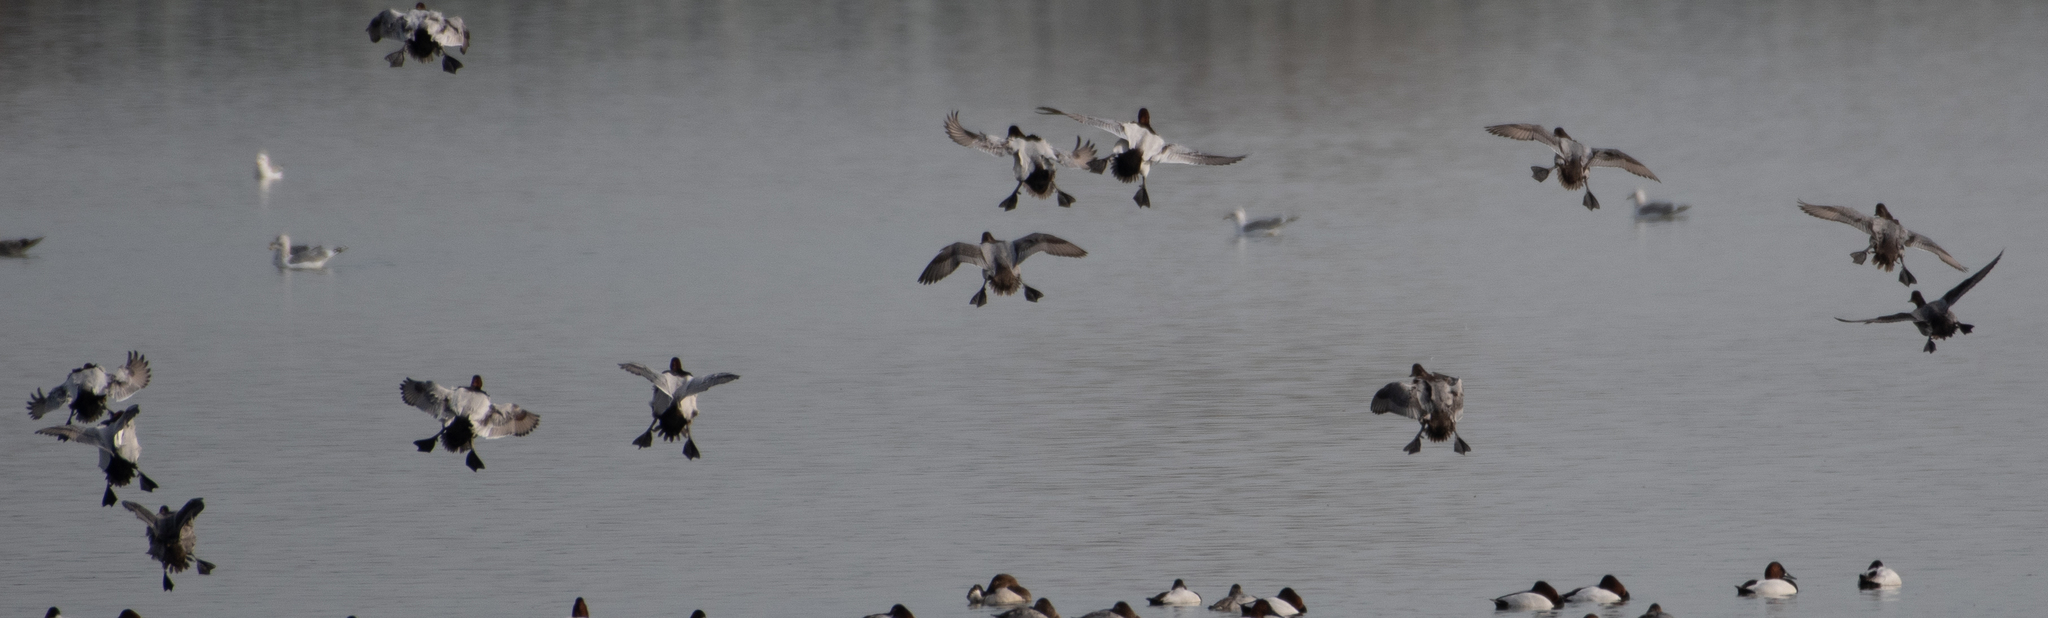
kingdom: Animalia
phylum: Chordata
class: Aves
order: Anseriformes
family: Anatidae
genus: Aythya
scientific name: Aythya valisineria
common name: Canvasback
